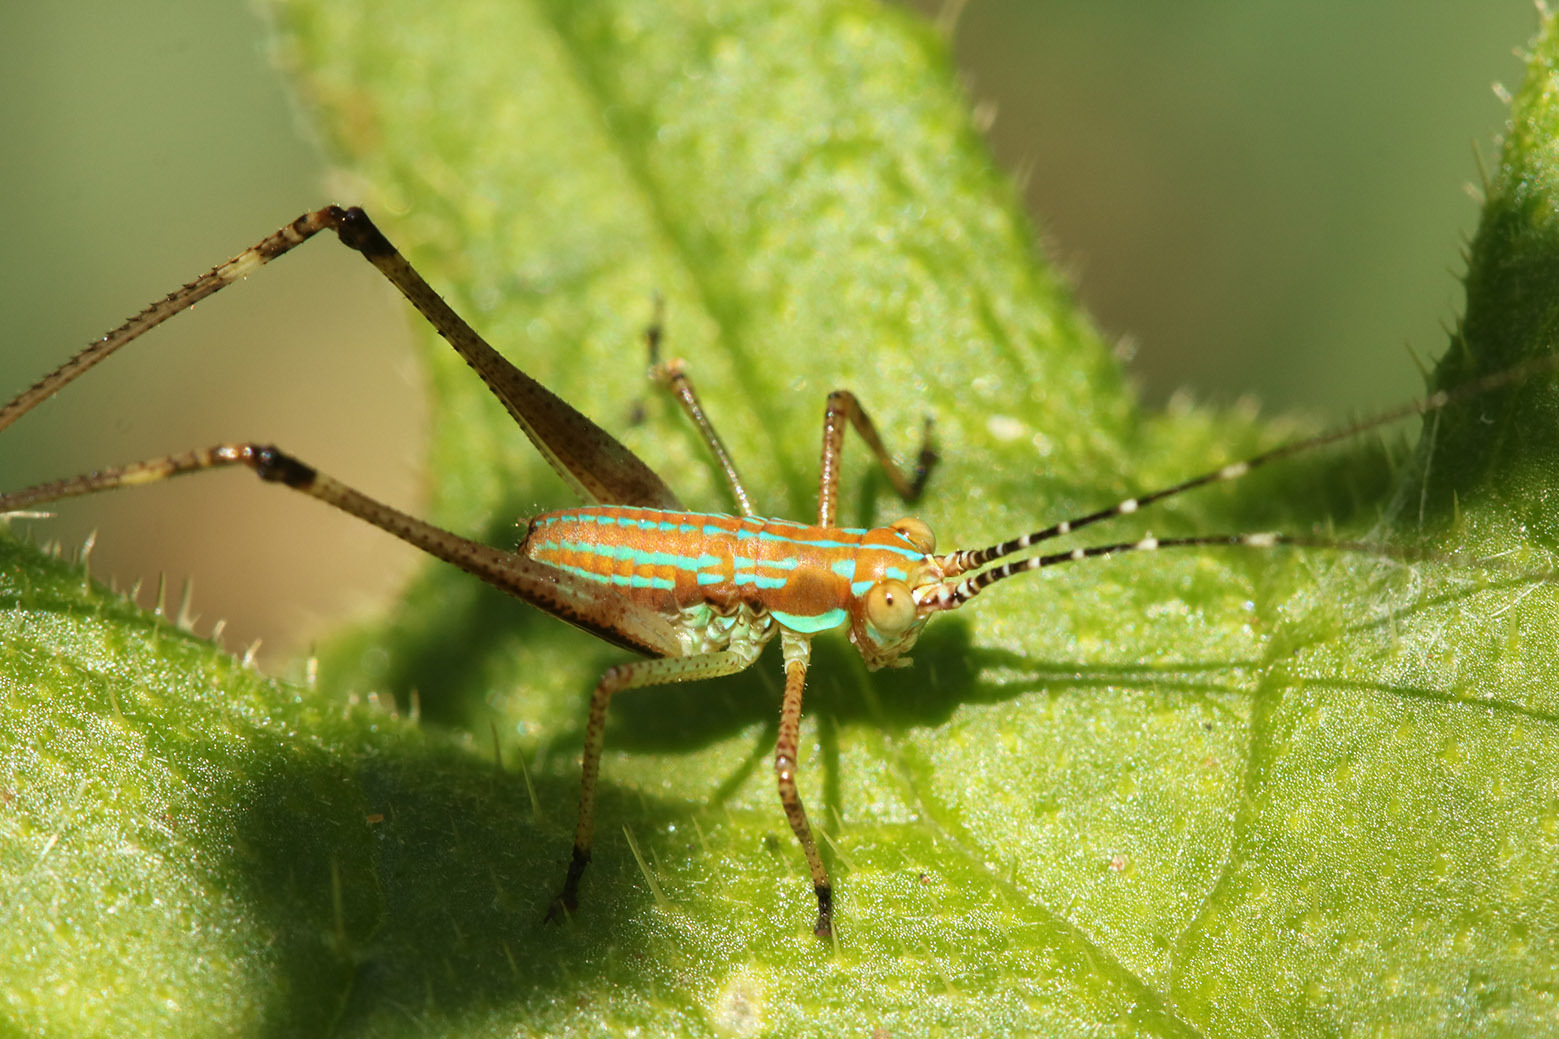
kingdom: Animalia
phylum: Arthropoda
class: Insecta
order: Orthoptera
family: Tettigoniidae
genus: Theudoria
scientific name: Theudoria melanocnemis
